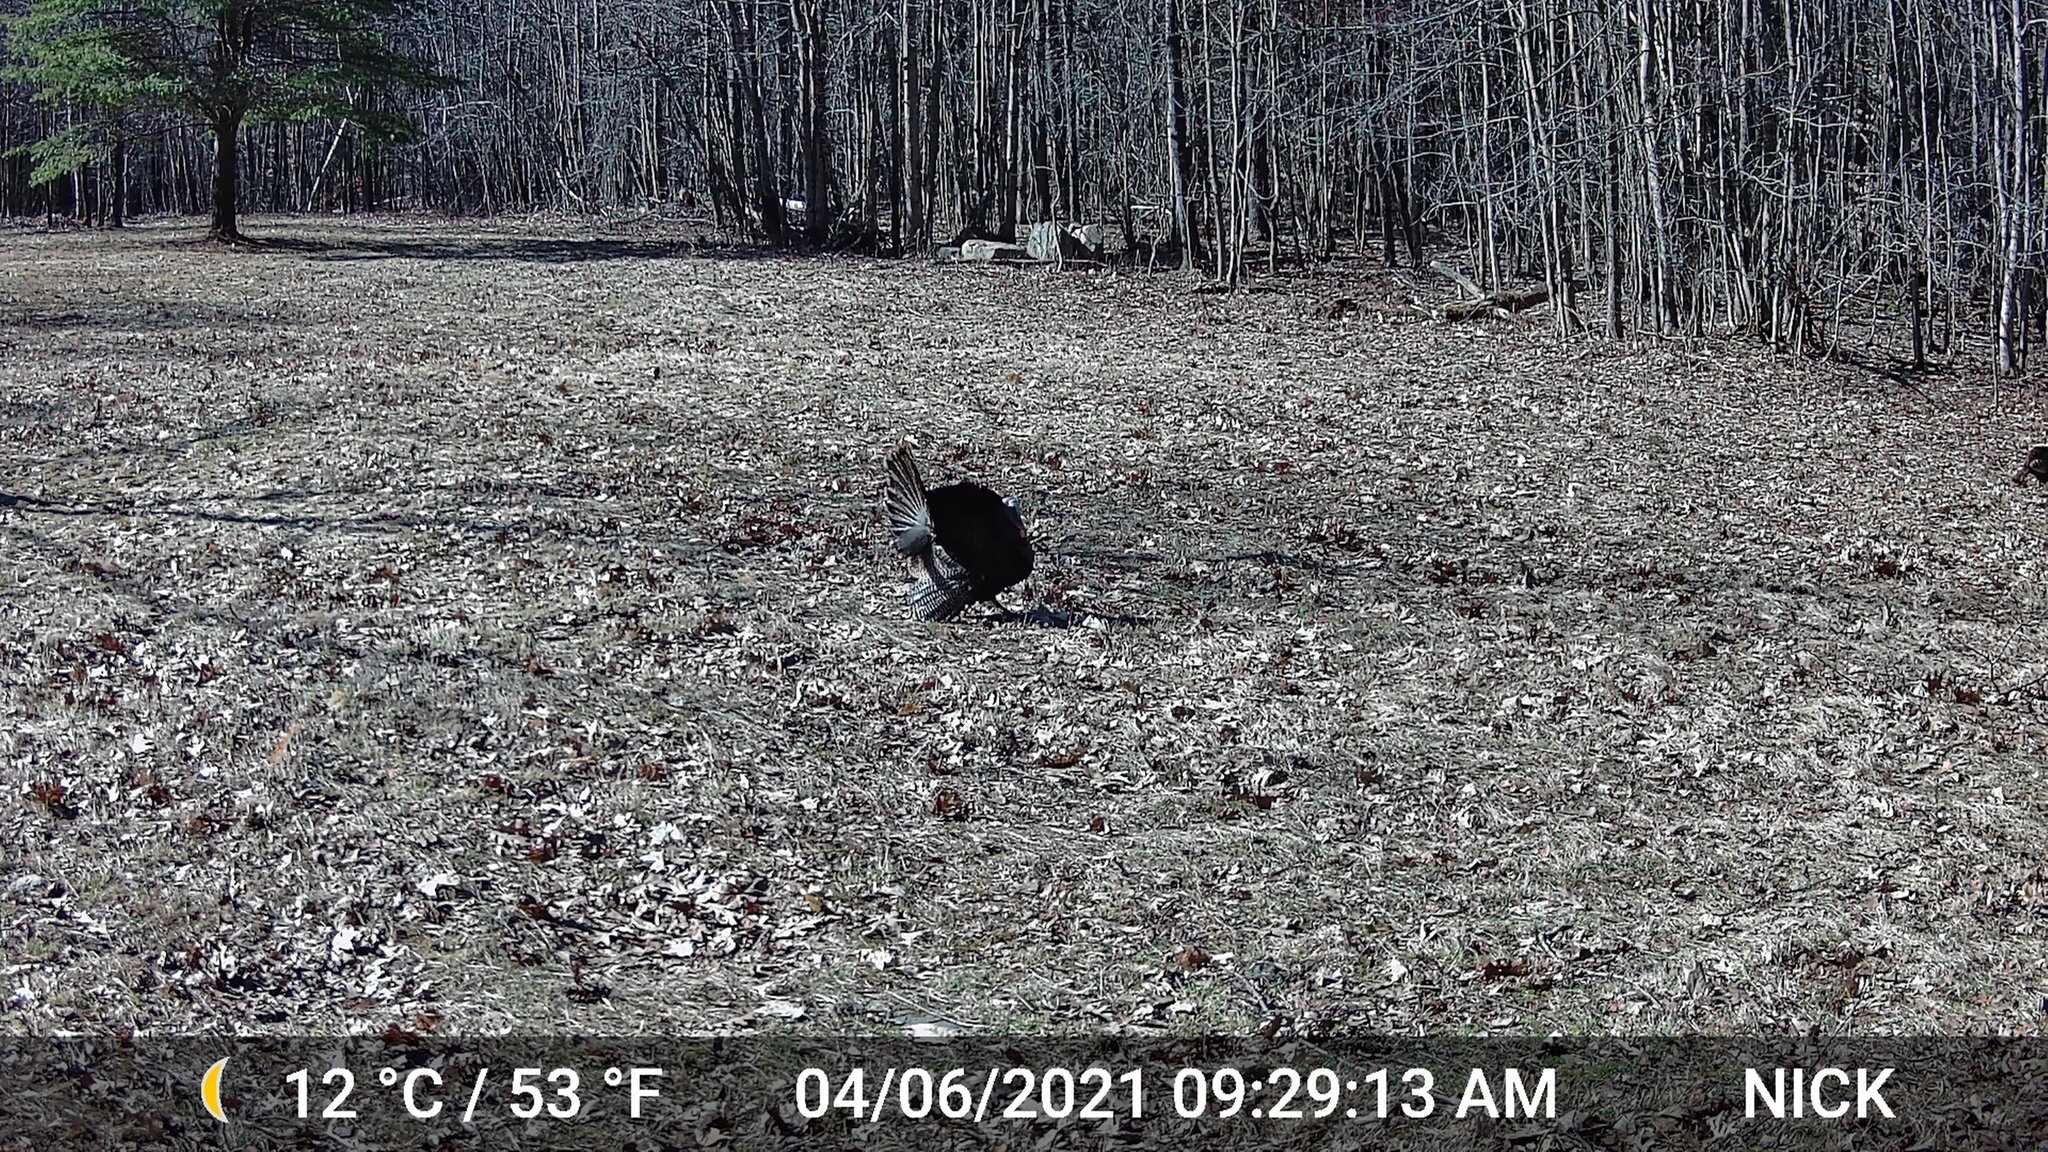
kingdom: Animalia
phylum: Chordata
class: Aves
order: Galliformes
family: Phasianidae
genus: Meleagris
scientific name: Meleagris gallopavo
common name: Wild turkey
